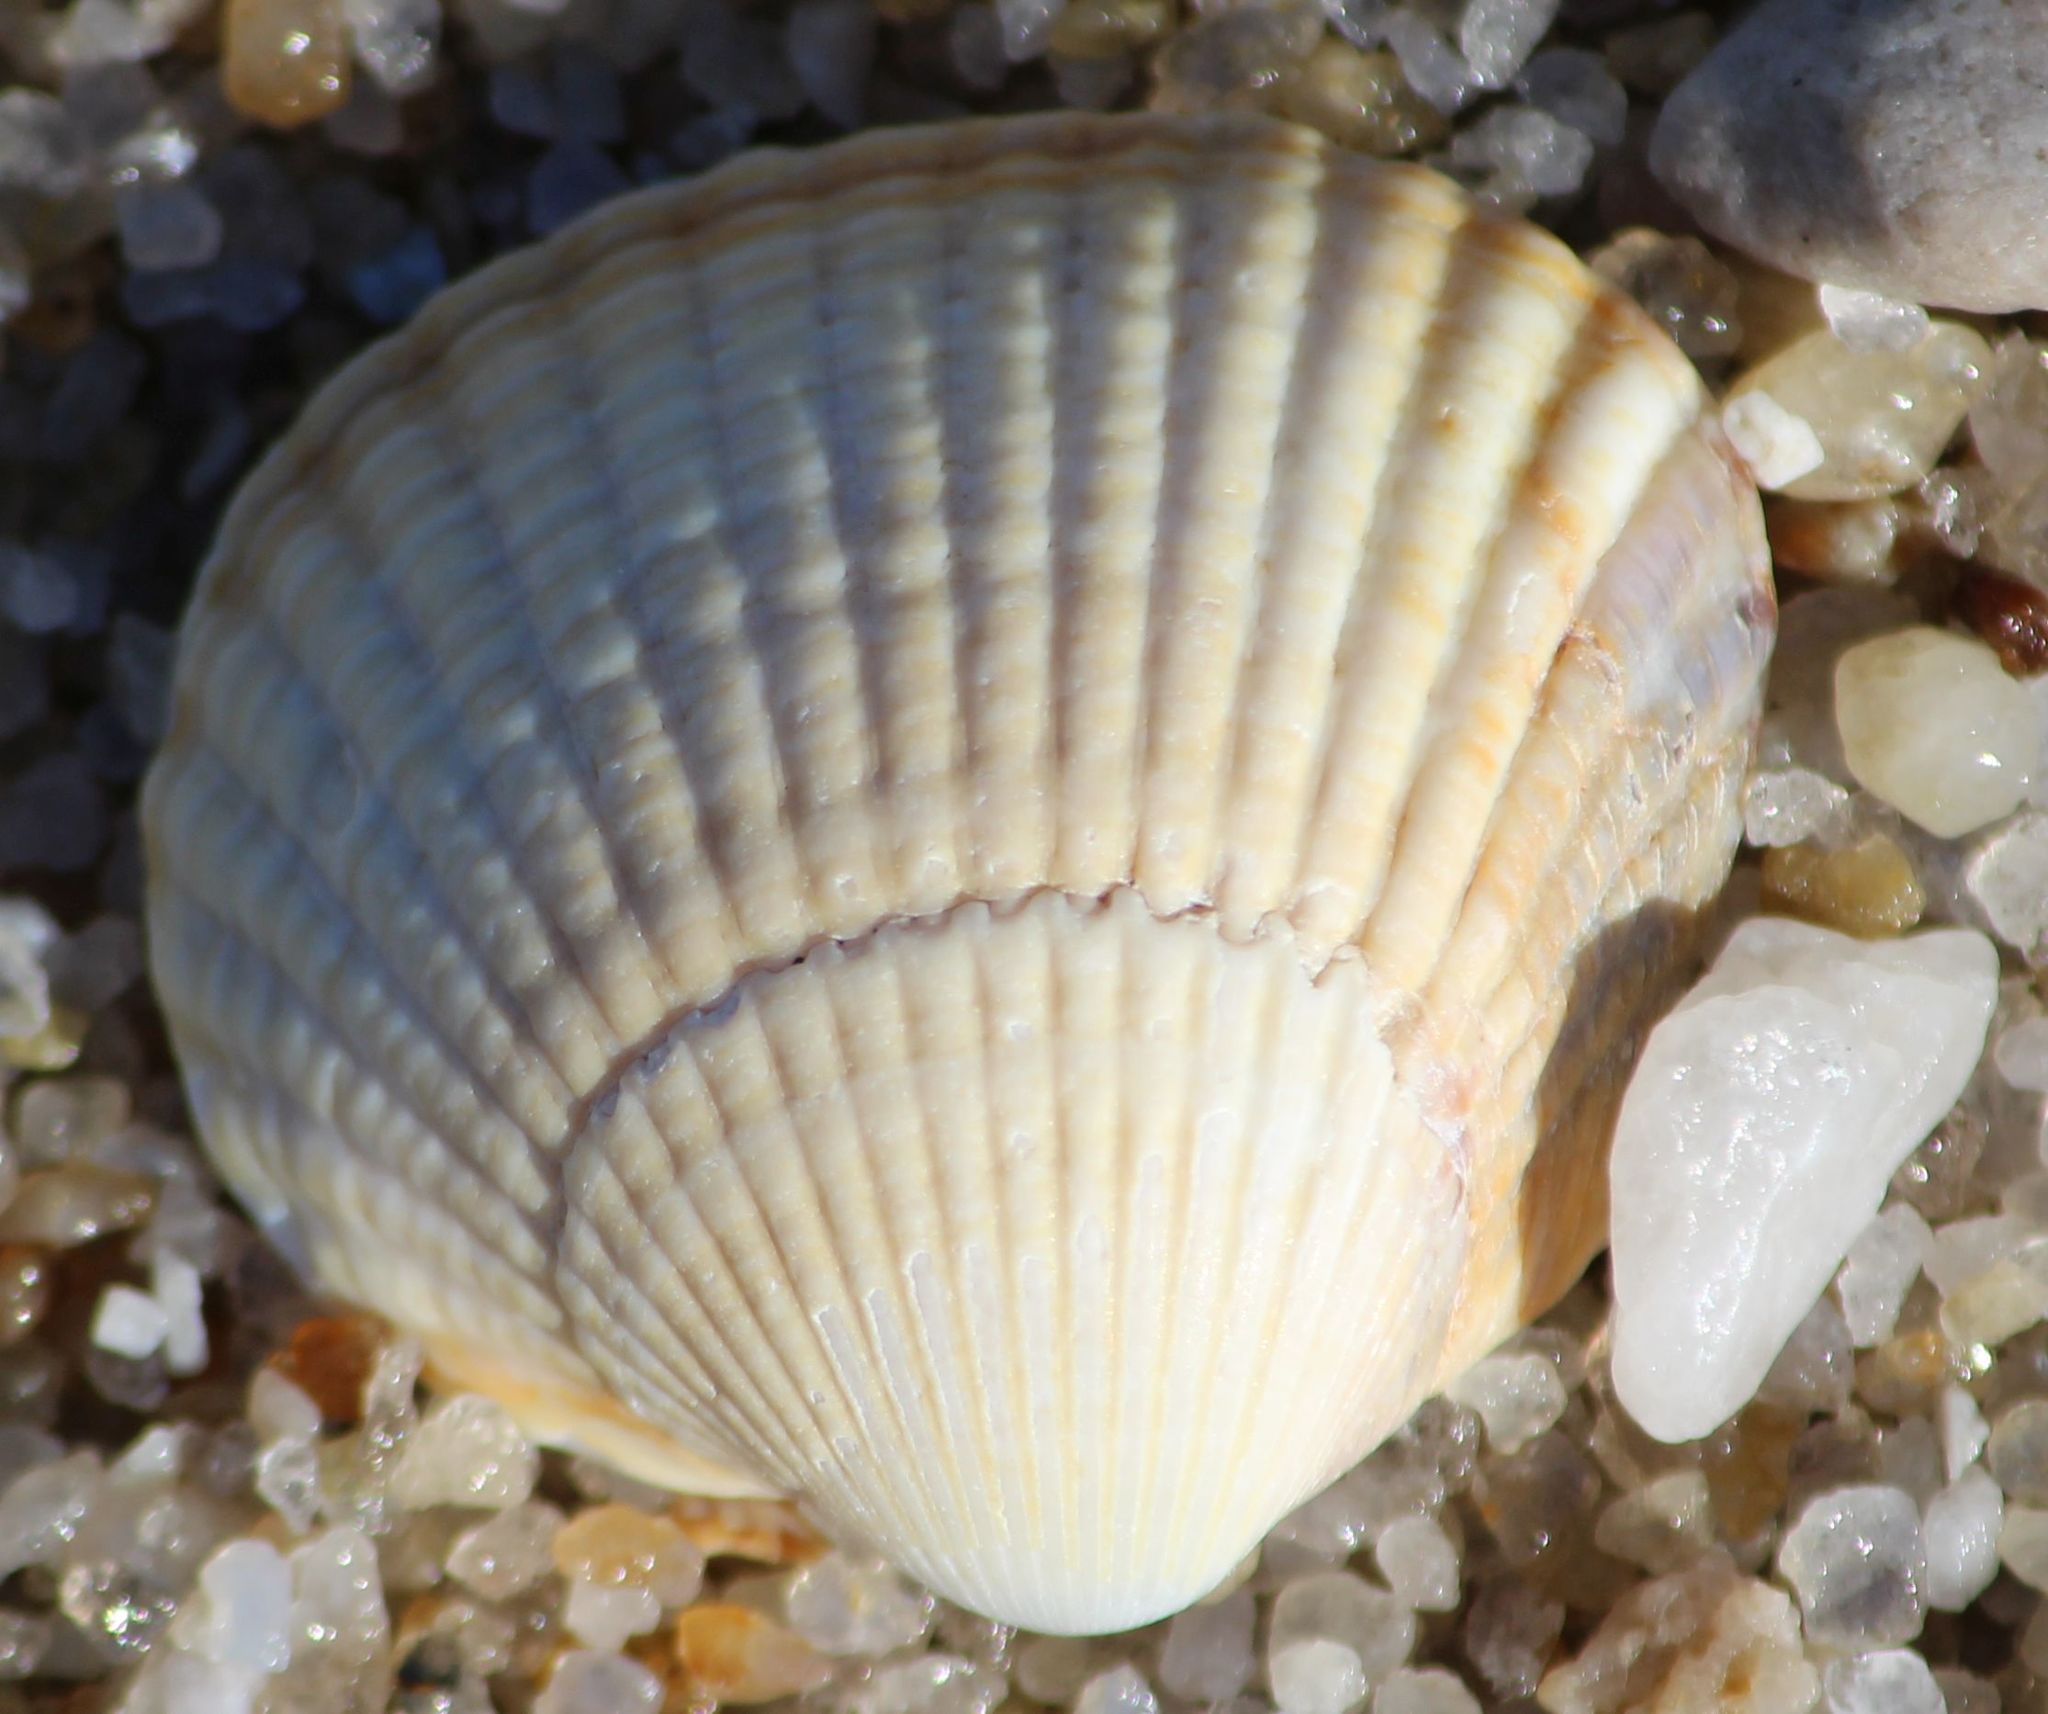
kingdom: Animalia
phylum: Mollusca
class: Bivalvia
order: Cardiida
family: Cardiidae
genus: Cerastoderma
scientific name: Cerastoderma edule
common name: Common cockle
